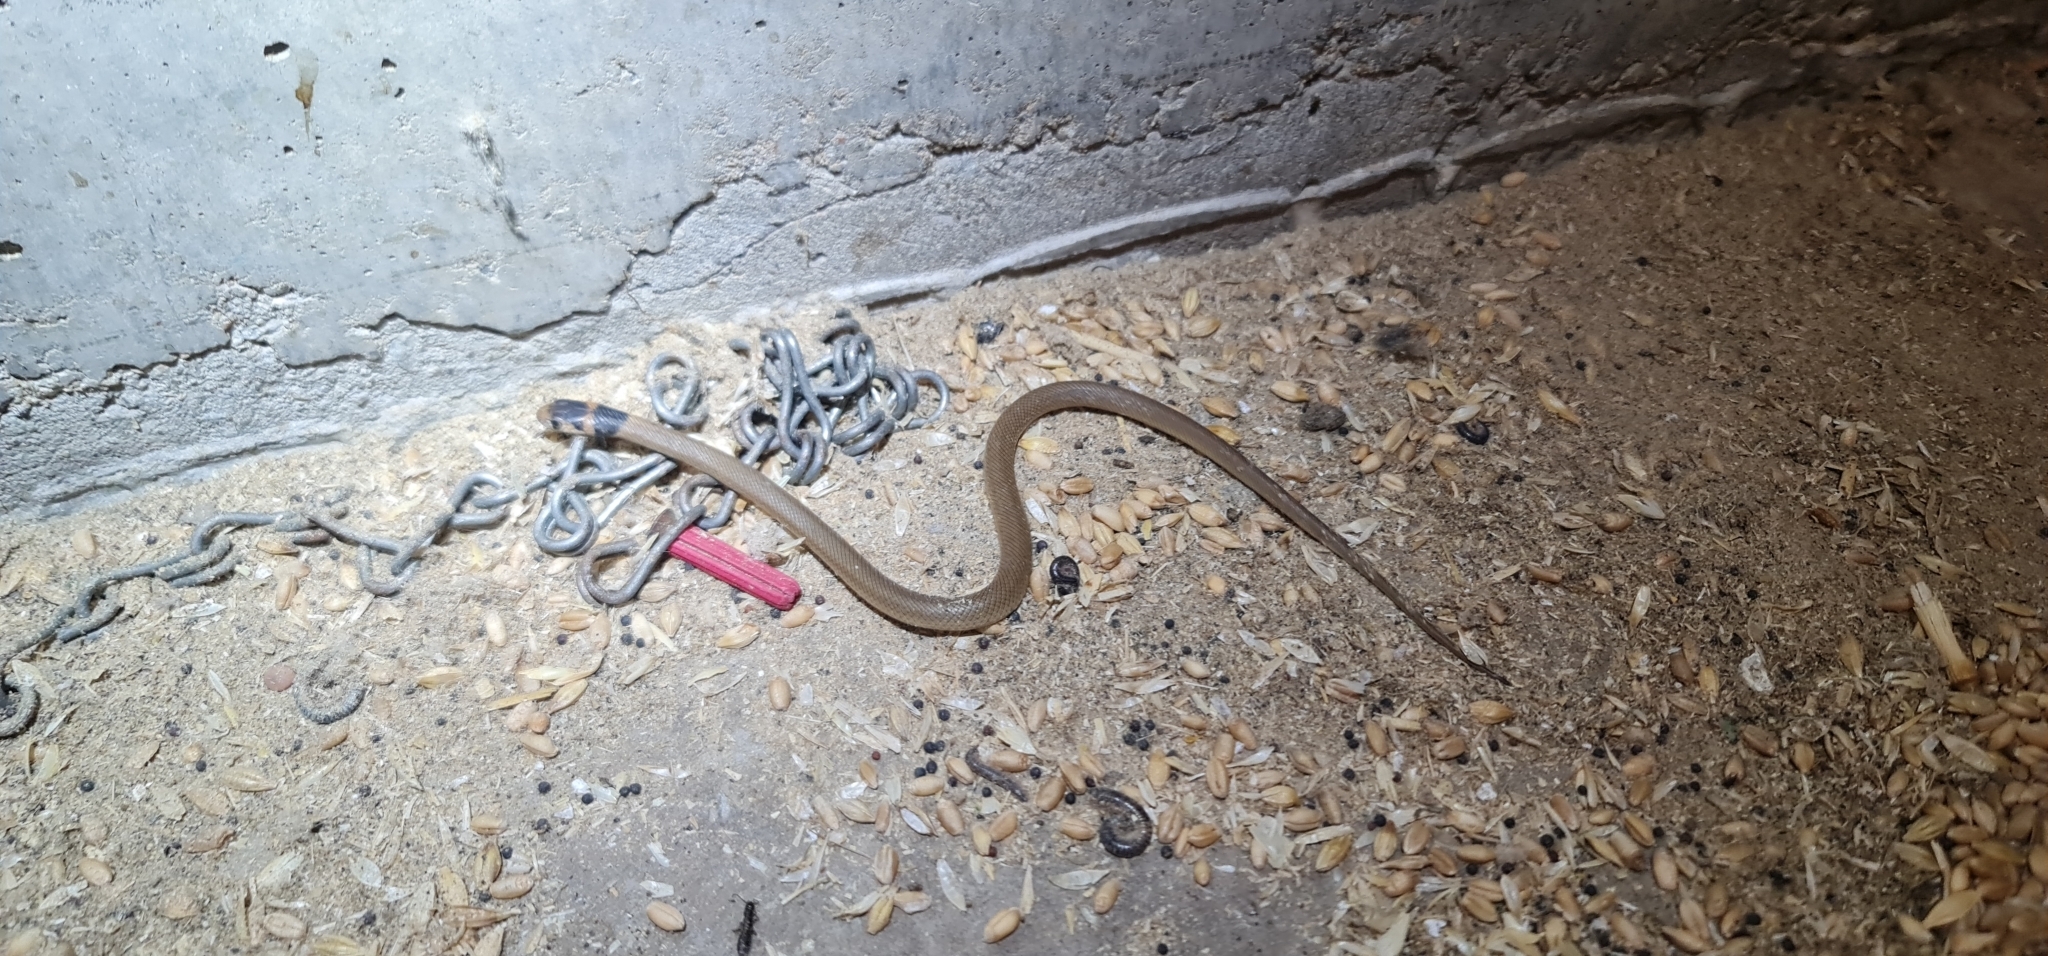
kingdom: Animalia
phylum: Chordata
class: Squamata
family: Elapidae
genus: Pseudonaja
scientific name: Pseudonaja textilis
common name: Eastern brown snake
